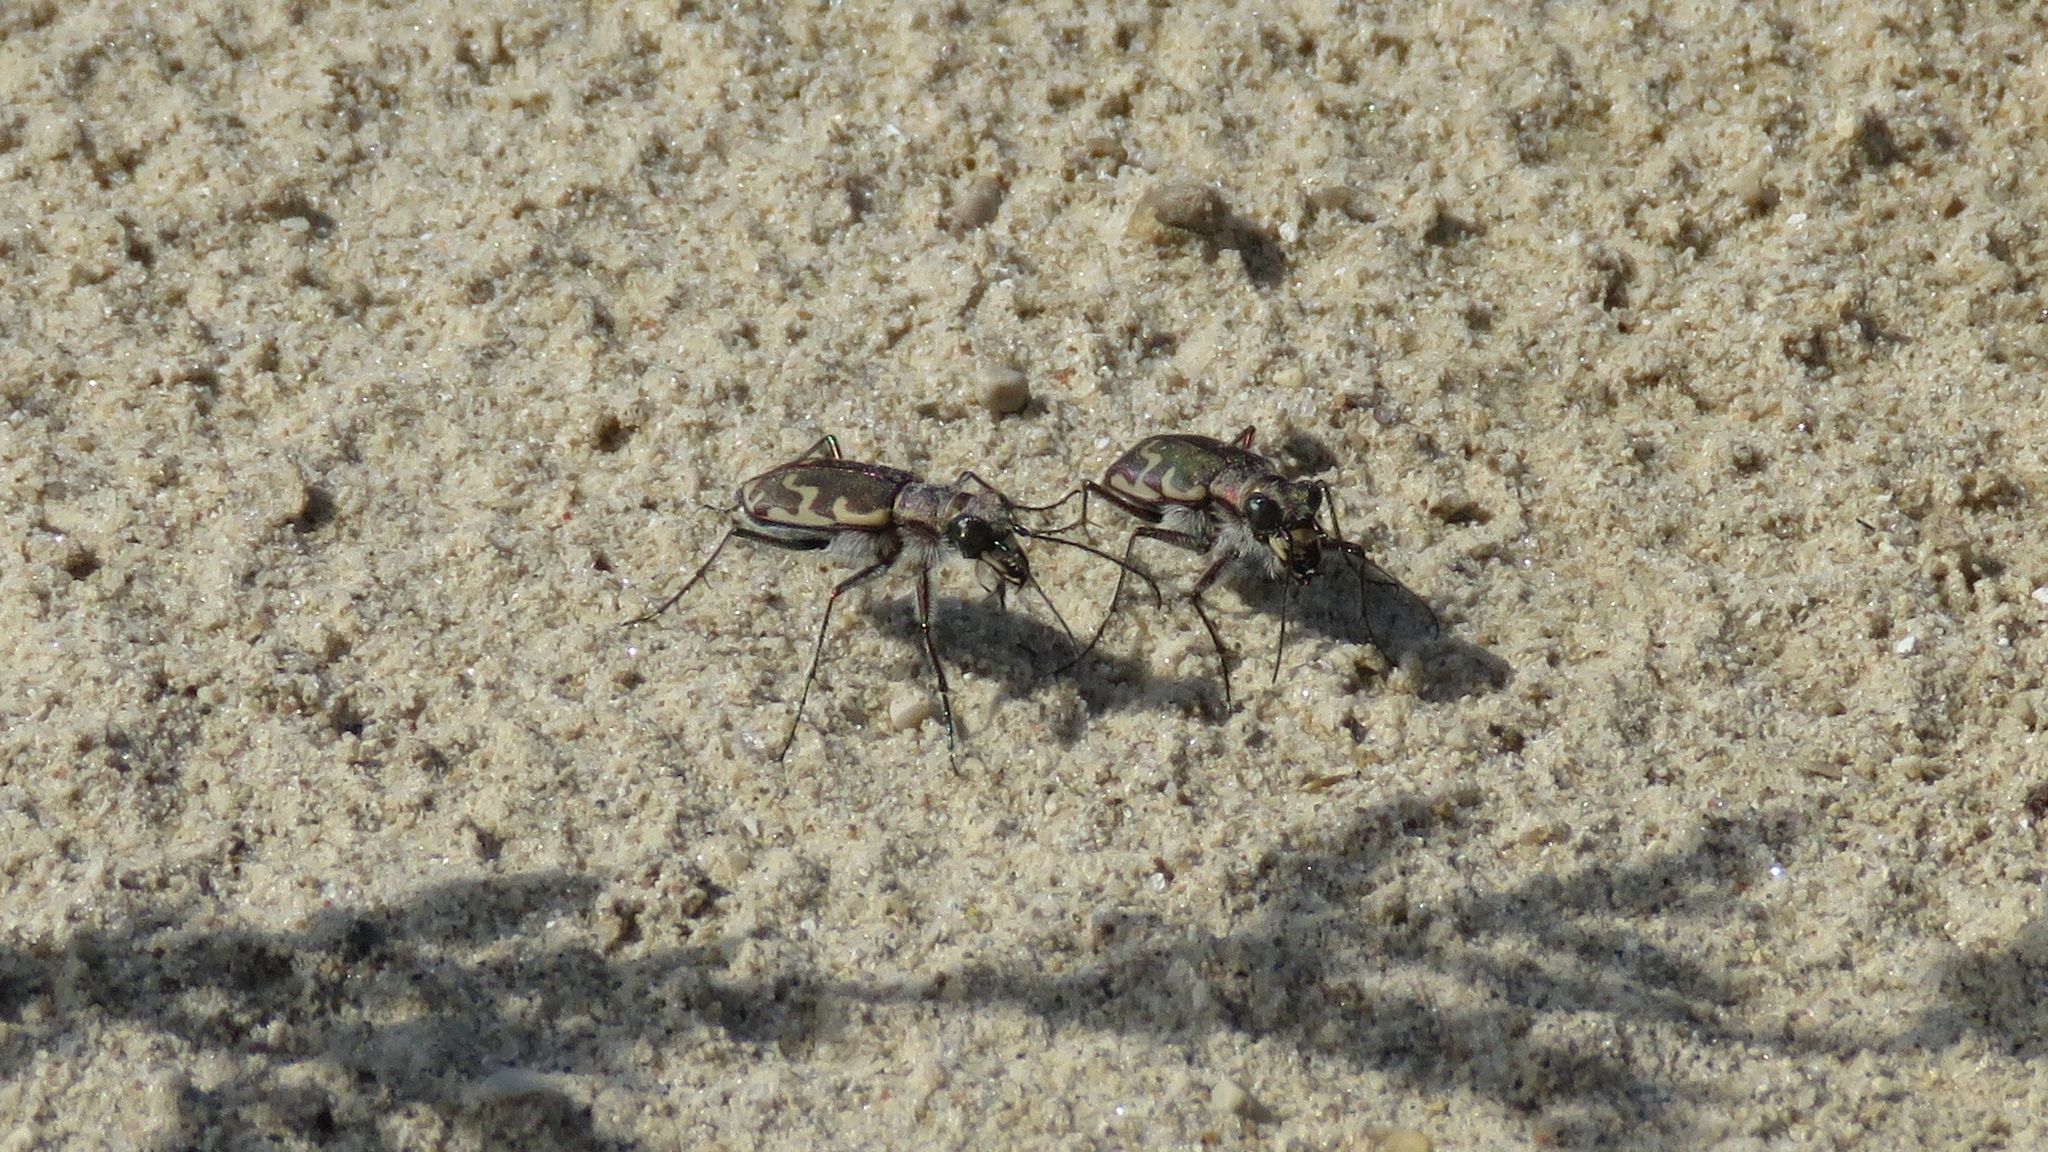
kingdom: Animalia
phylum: Arthropoda
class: Insecta
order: Coleoptera
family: Carabidae
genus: Cicindela
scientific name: Cicindela repanda
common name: Bronzed tiger beetle
